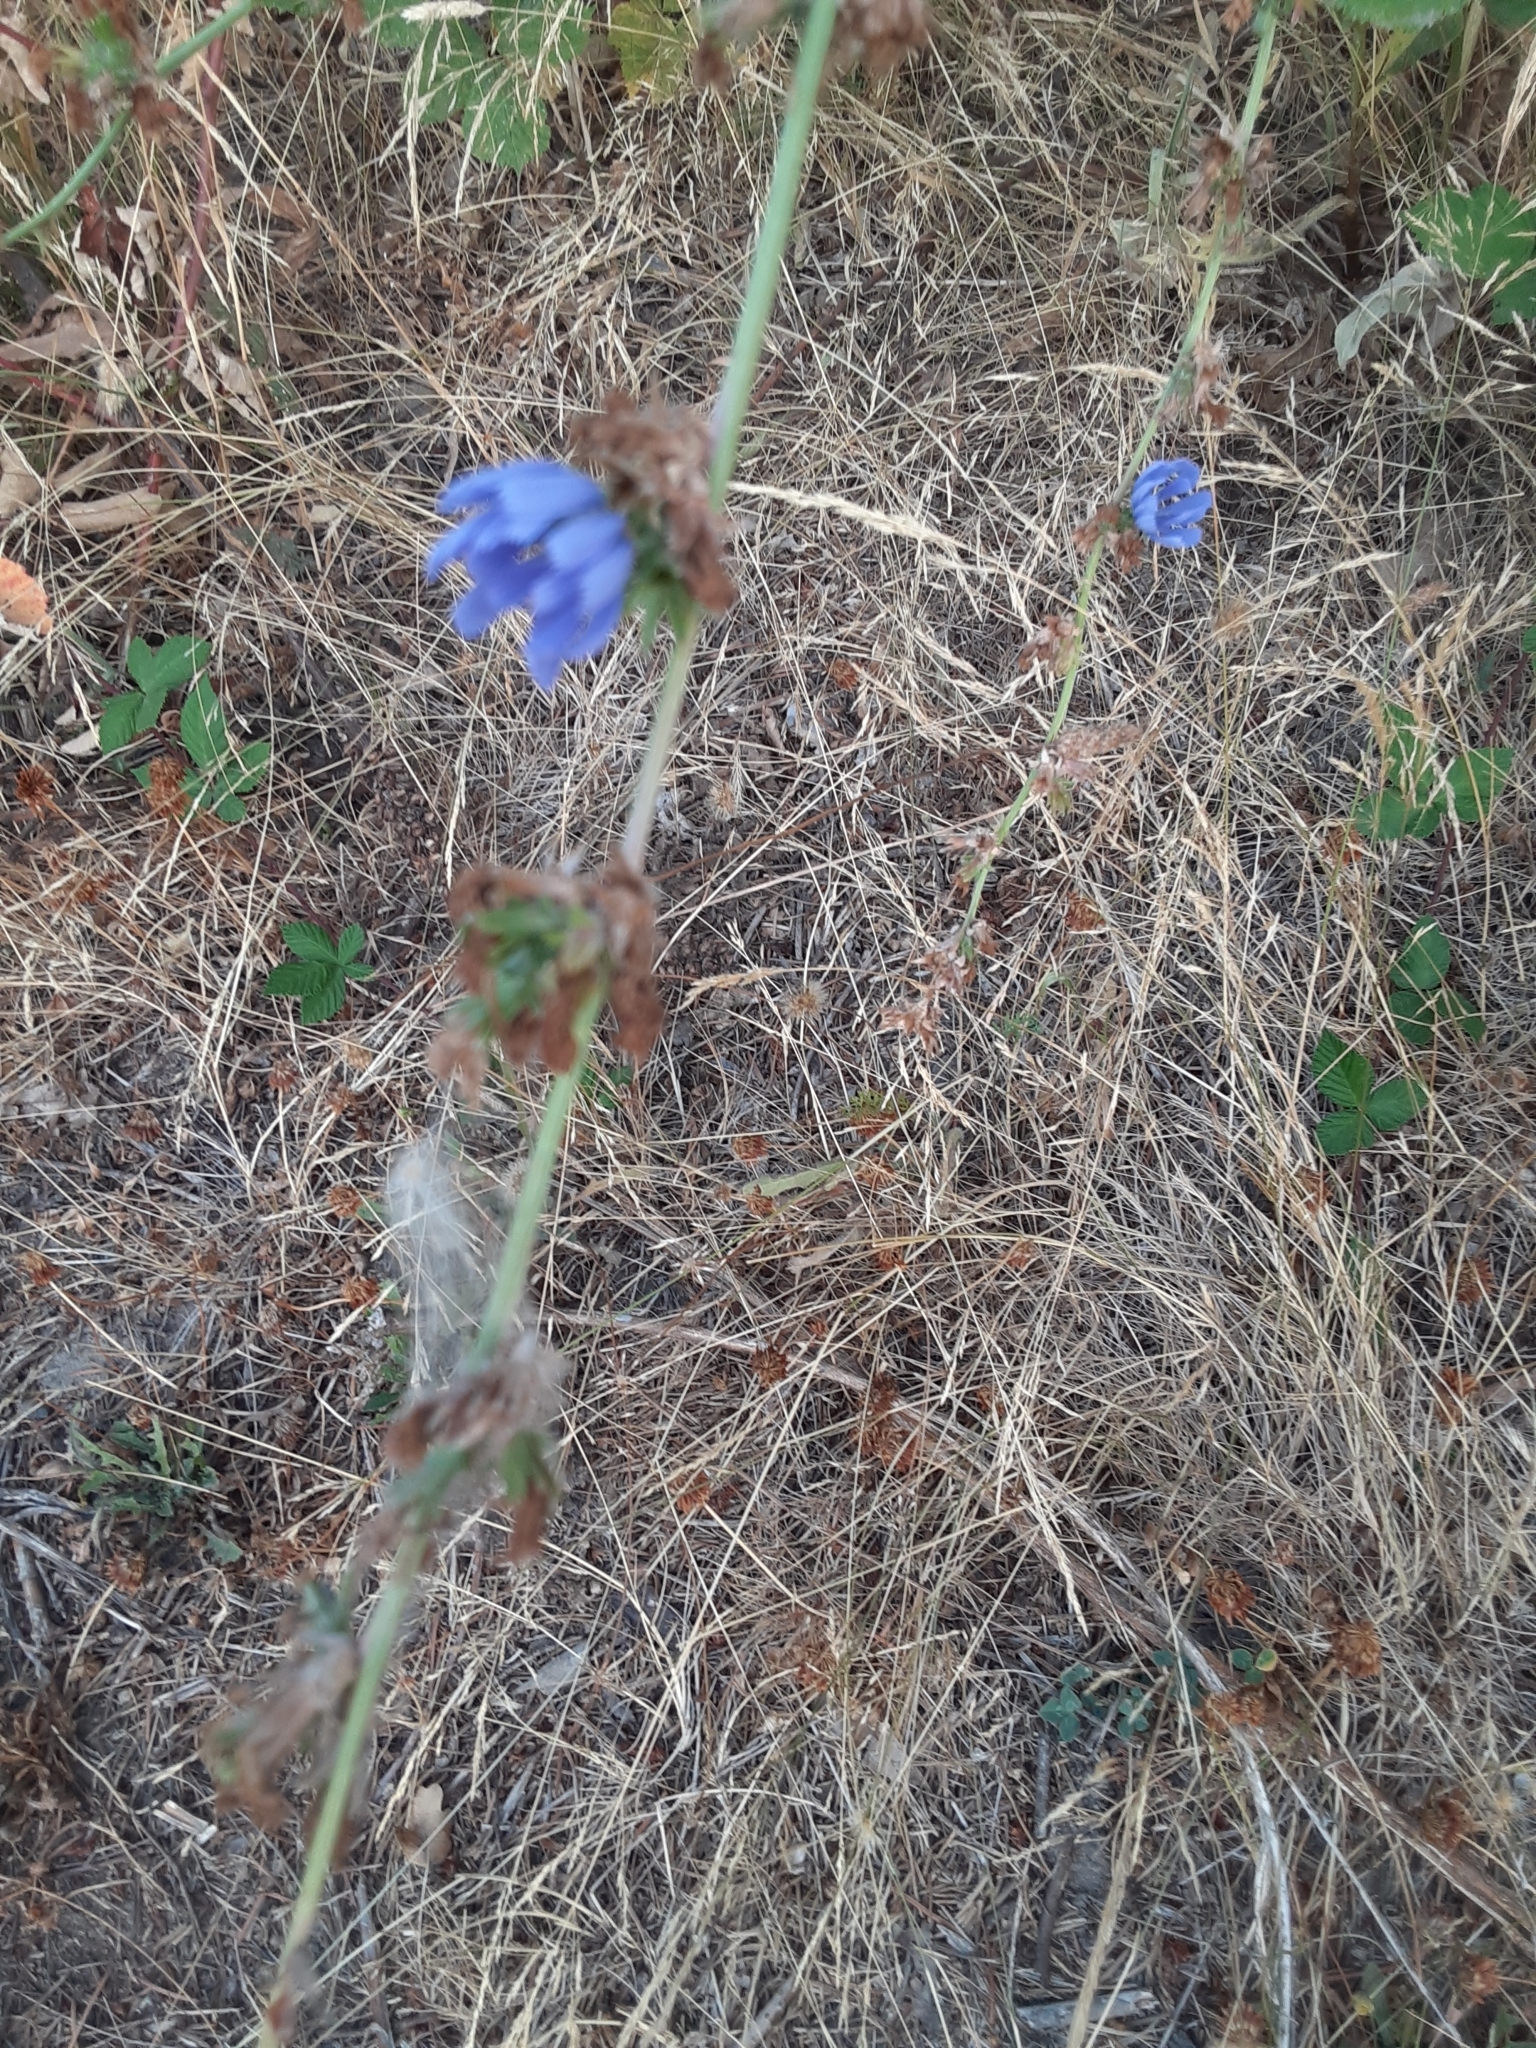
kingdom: Plantae
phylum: Tracheophyta
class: Magnoliopsida
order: Asterales
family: Asteraceae
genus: Cichorium
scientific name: Cichorium intybus
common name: Chicory
